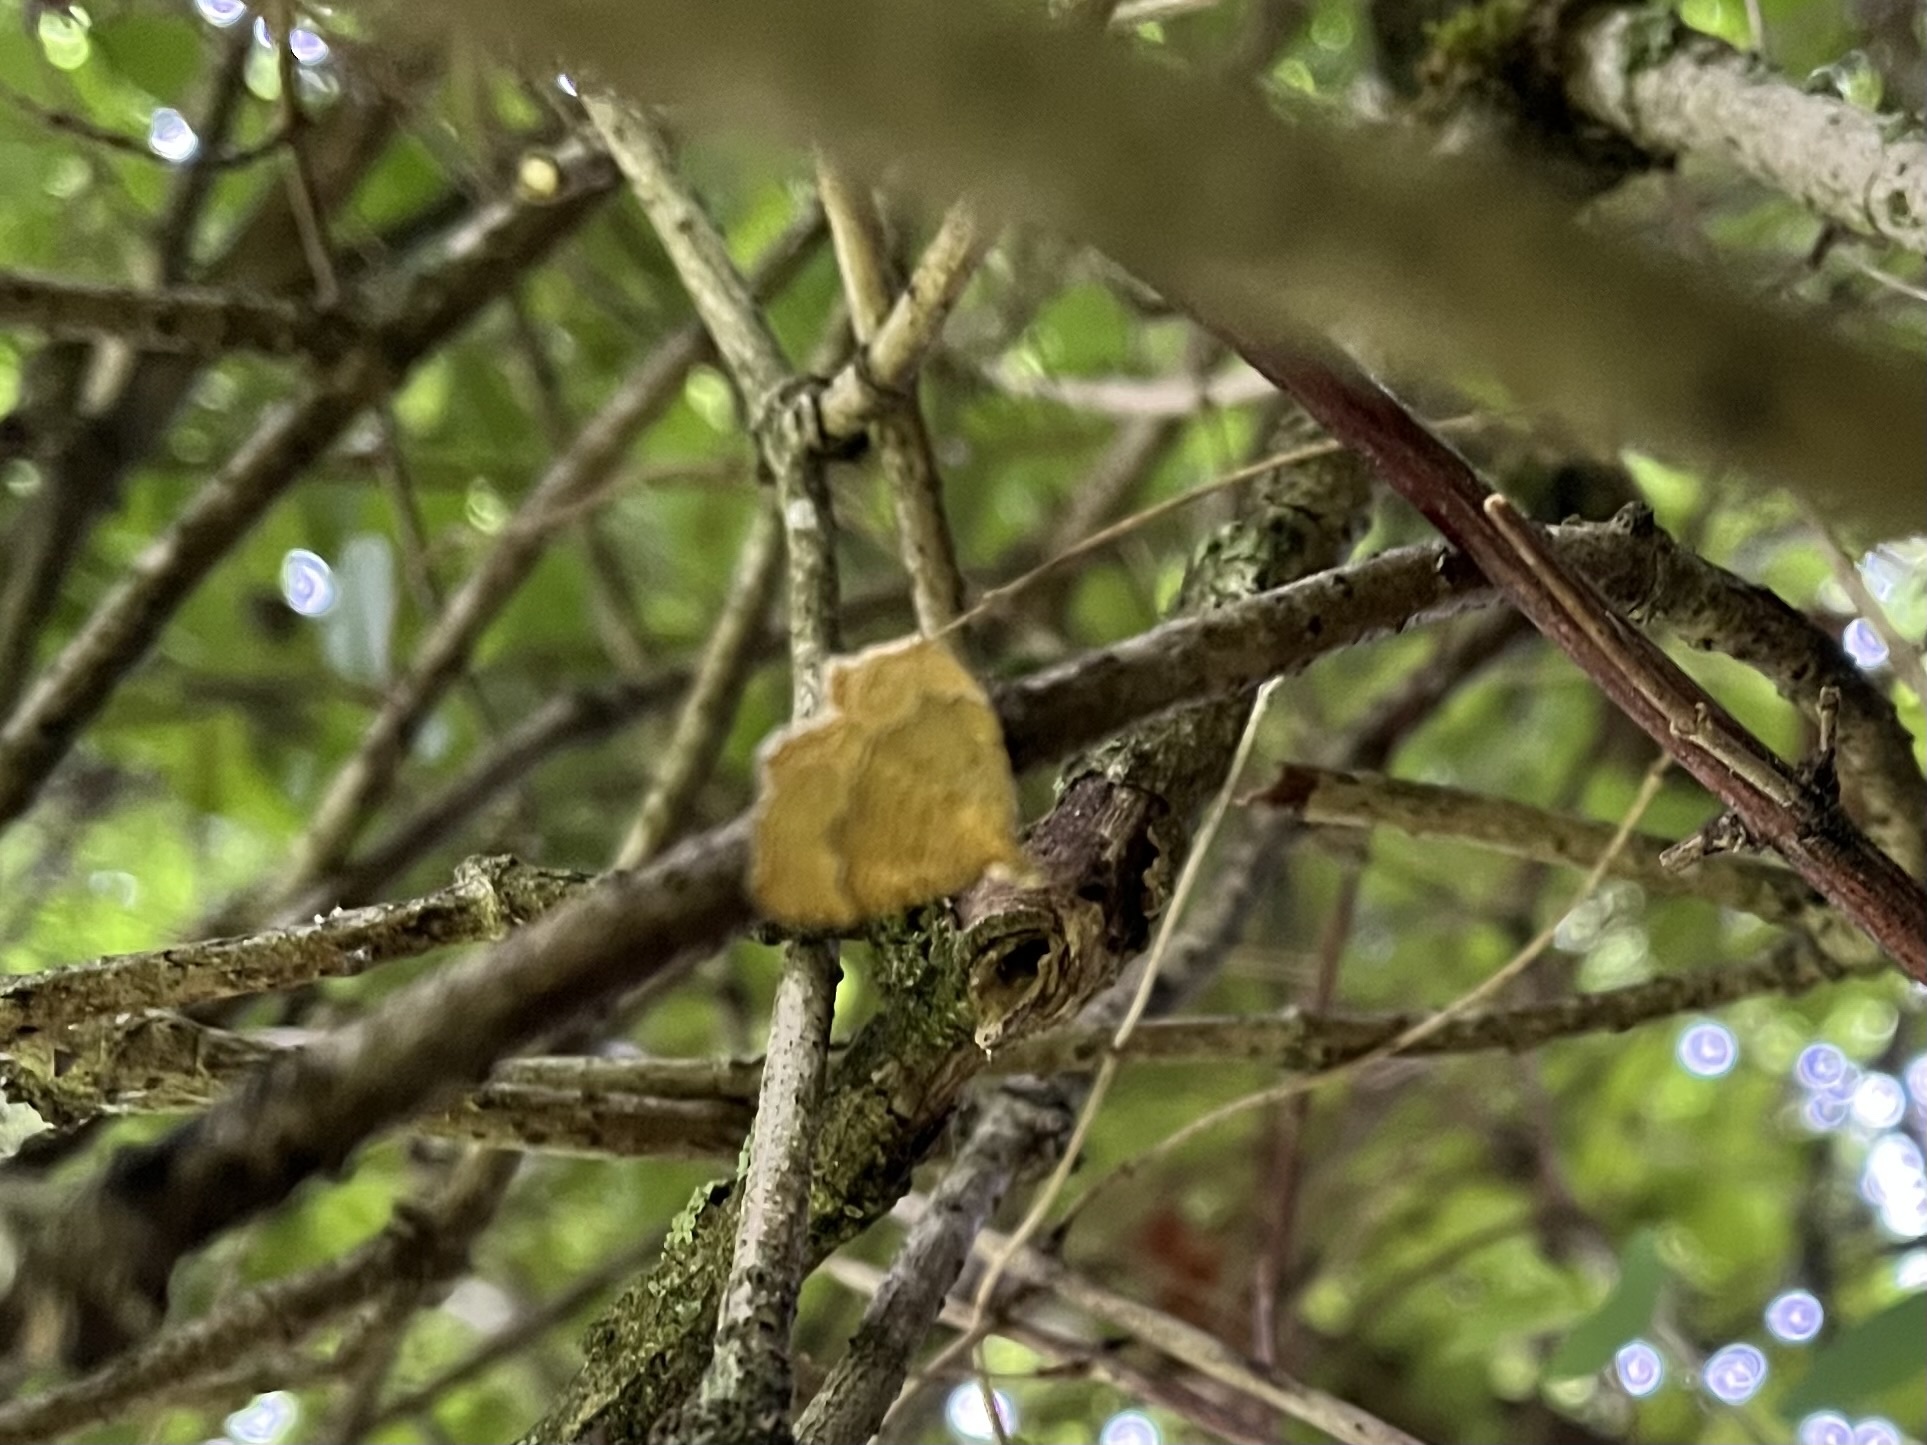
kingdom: Animalia
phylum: Arthropoda
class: Insecta
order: Lepidoptera
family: Geometridae
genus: Camptogramma
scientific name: Camptogramma bilineata
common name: Yellow shell
